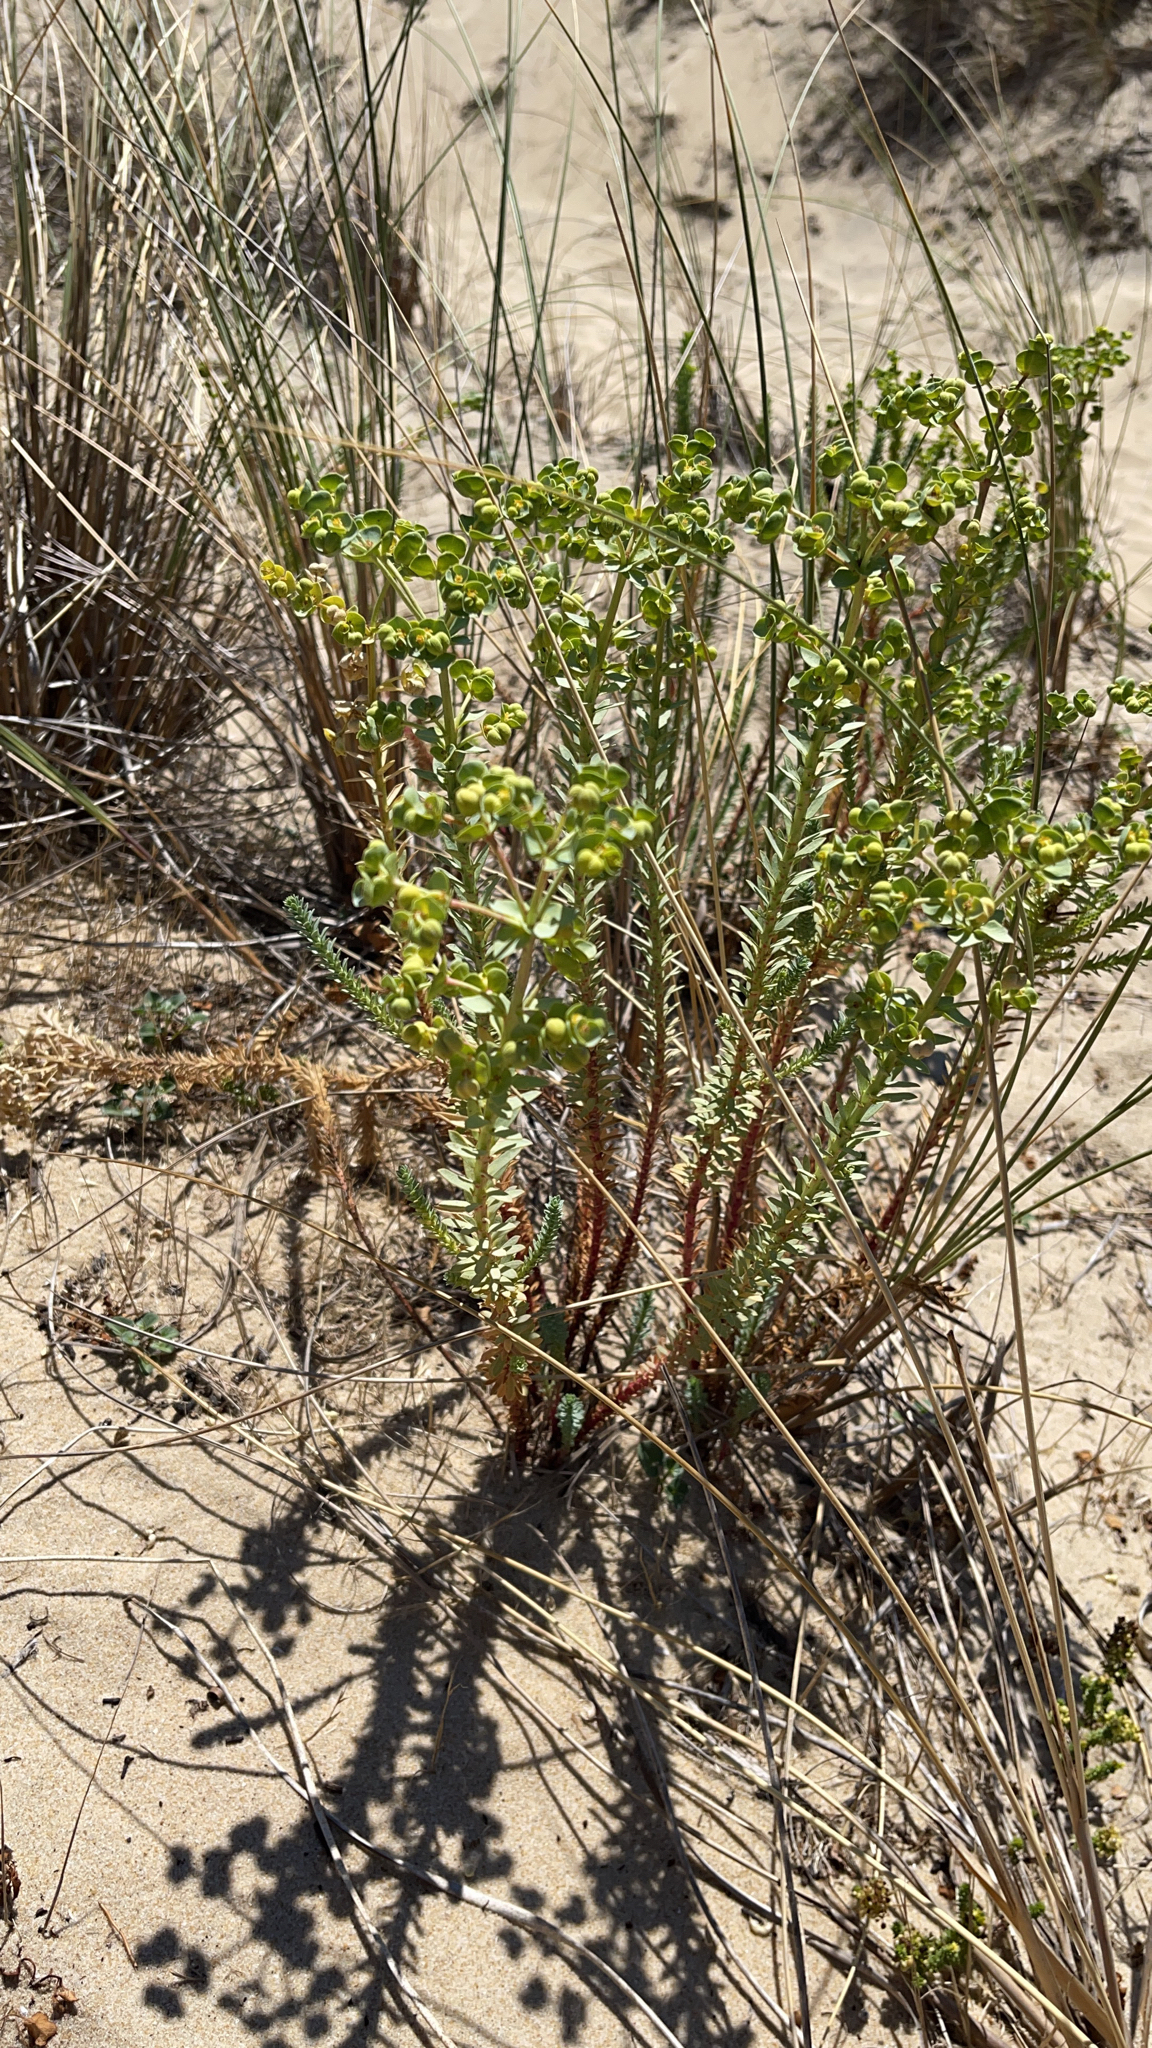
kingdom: Plantae
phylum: Tracheophyta
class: Magnoliopsida
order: Malpighiales
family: Euphorbiaceae
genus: Euphorbia
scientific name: Euphorbia paralias
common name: Sea spurge
